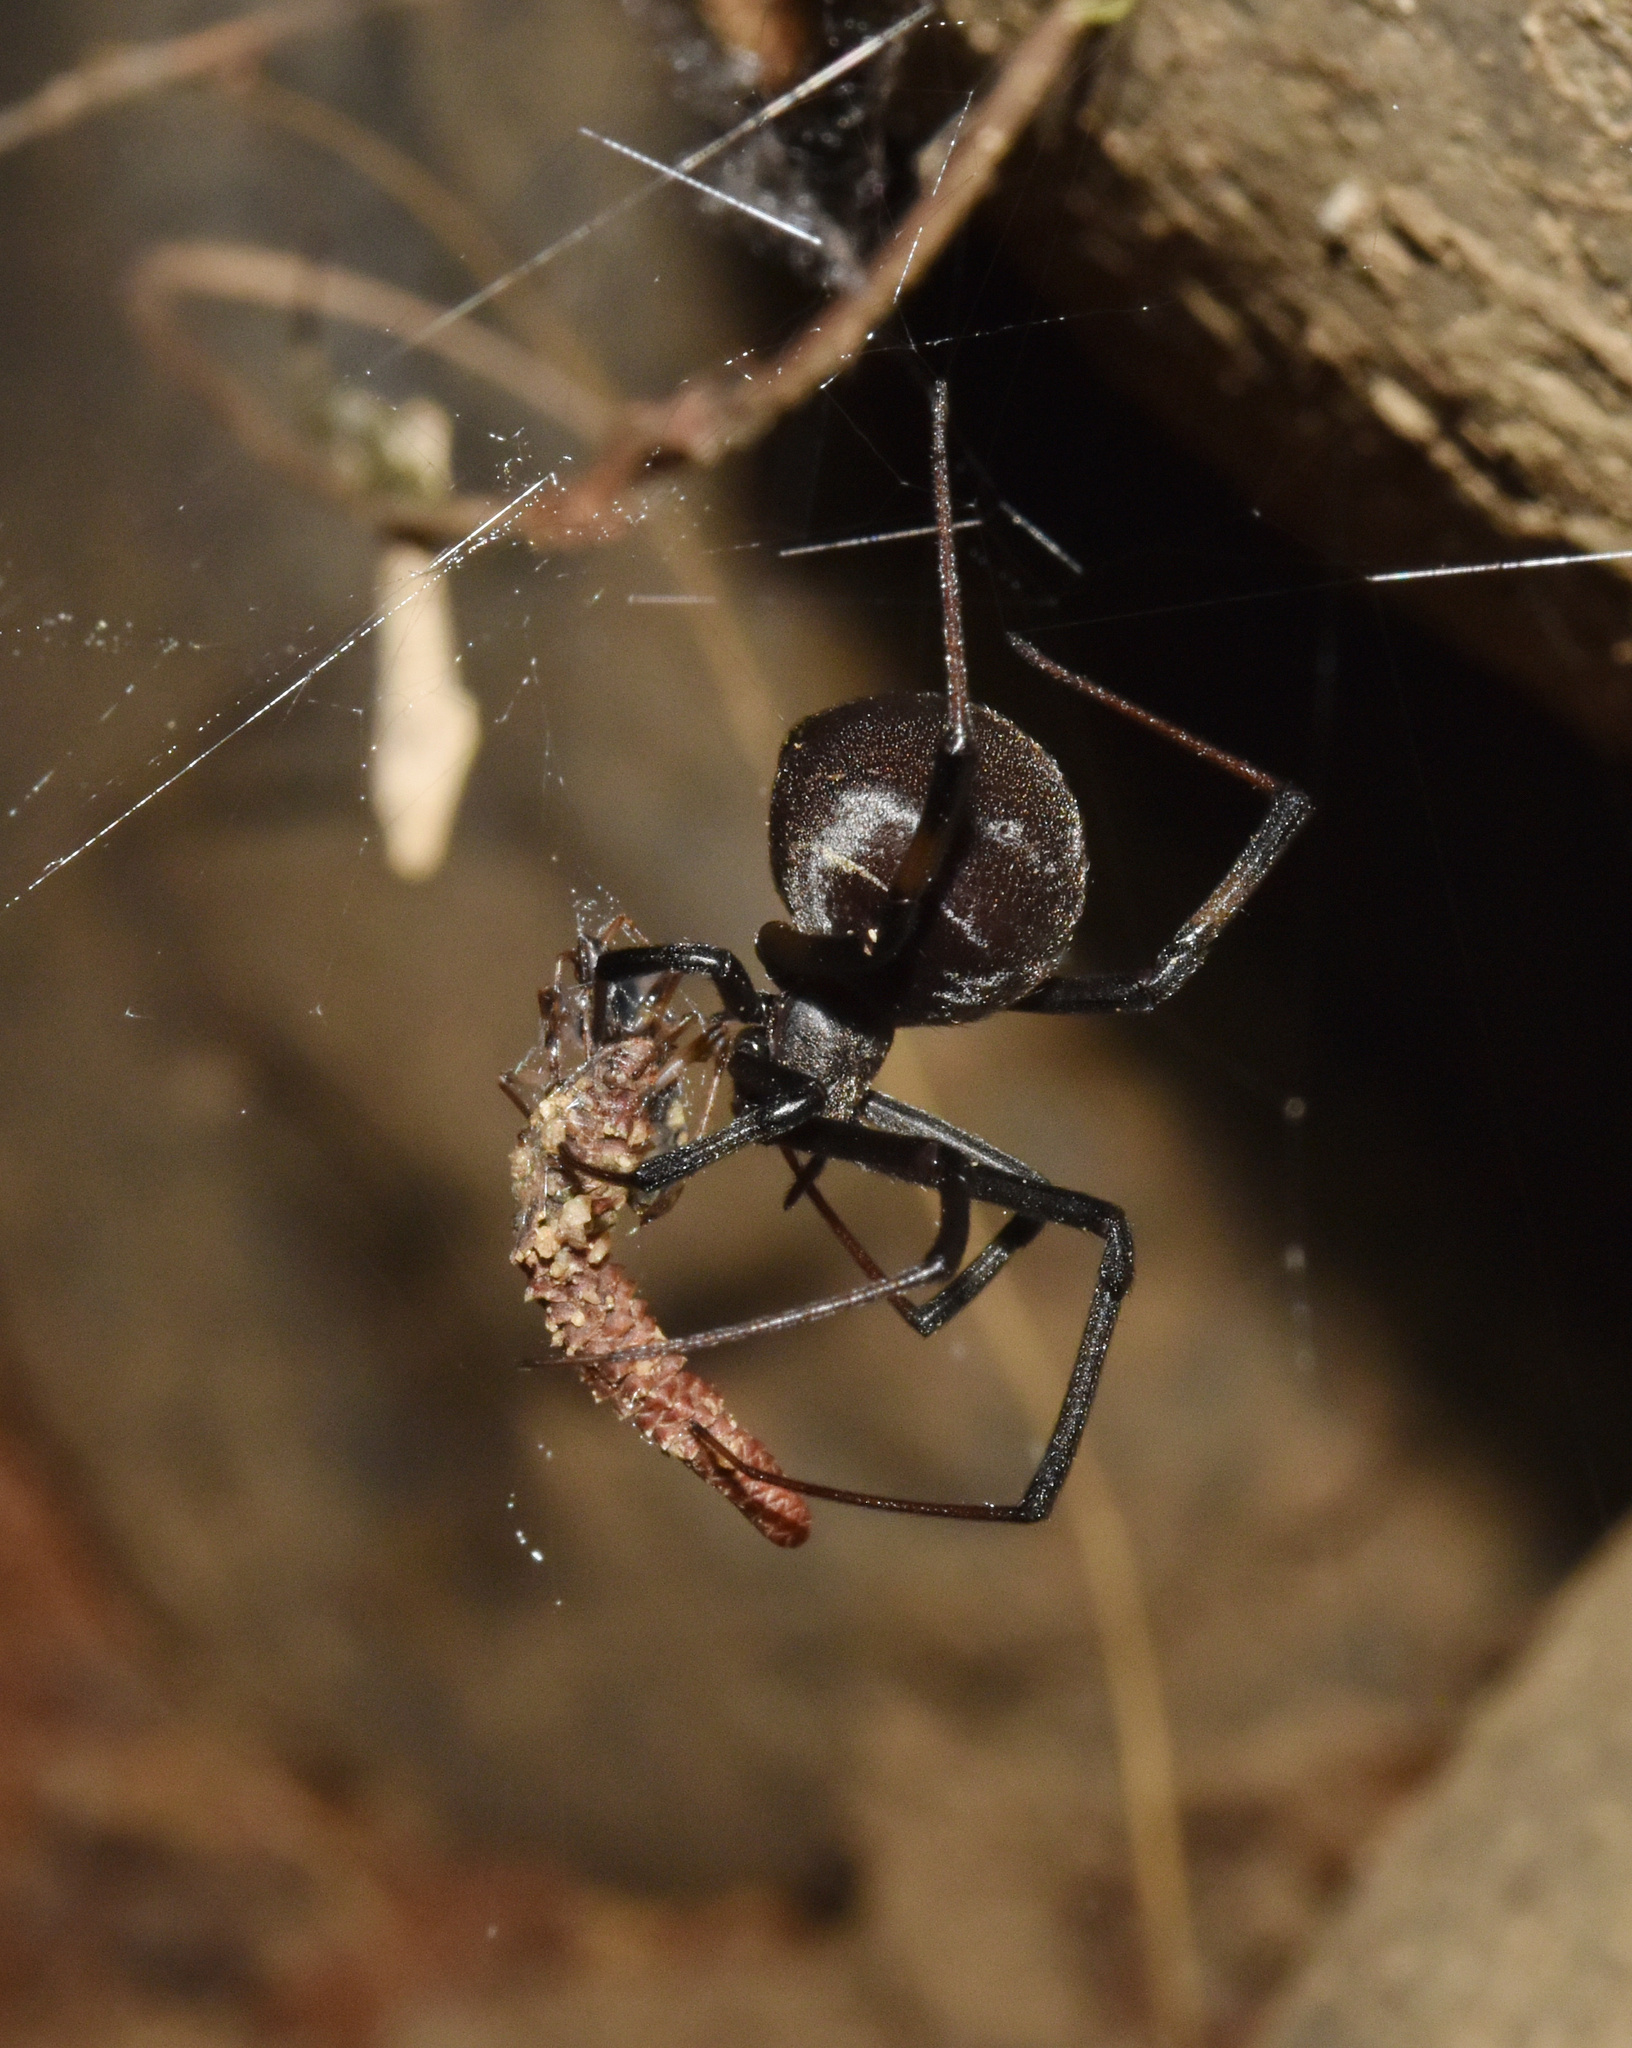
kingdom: Animalia
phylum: Arthropoda
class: Arachnida
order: Araneae
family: Theridiidae
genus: Latrodectus
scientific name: Latrodectus geometricus
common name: Brown widow spider
